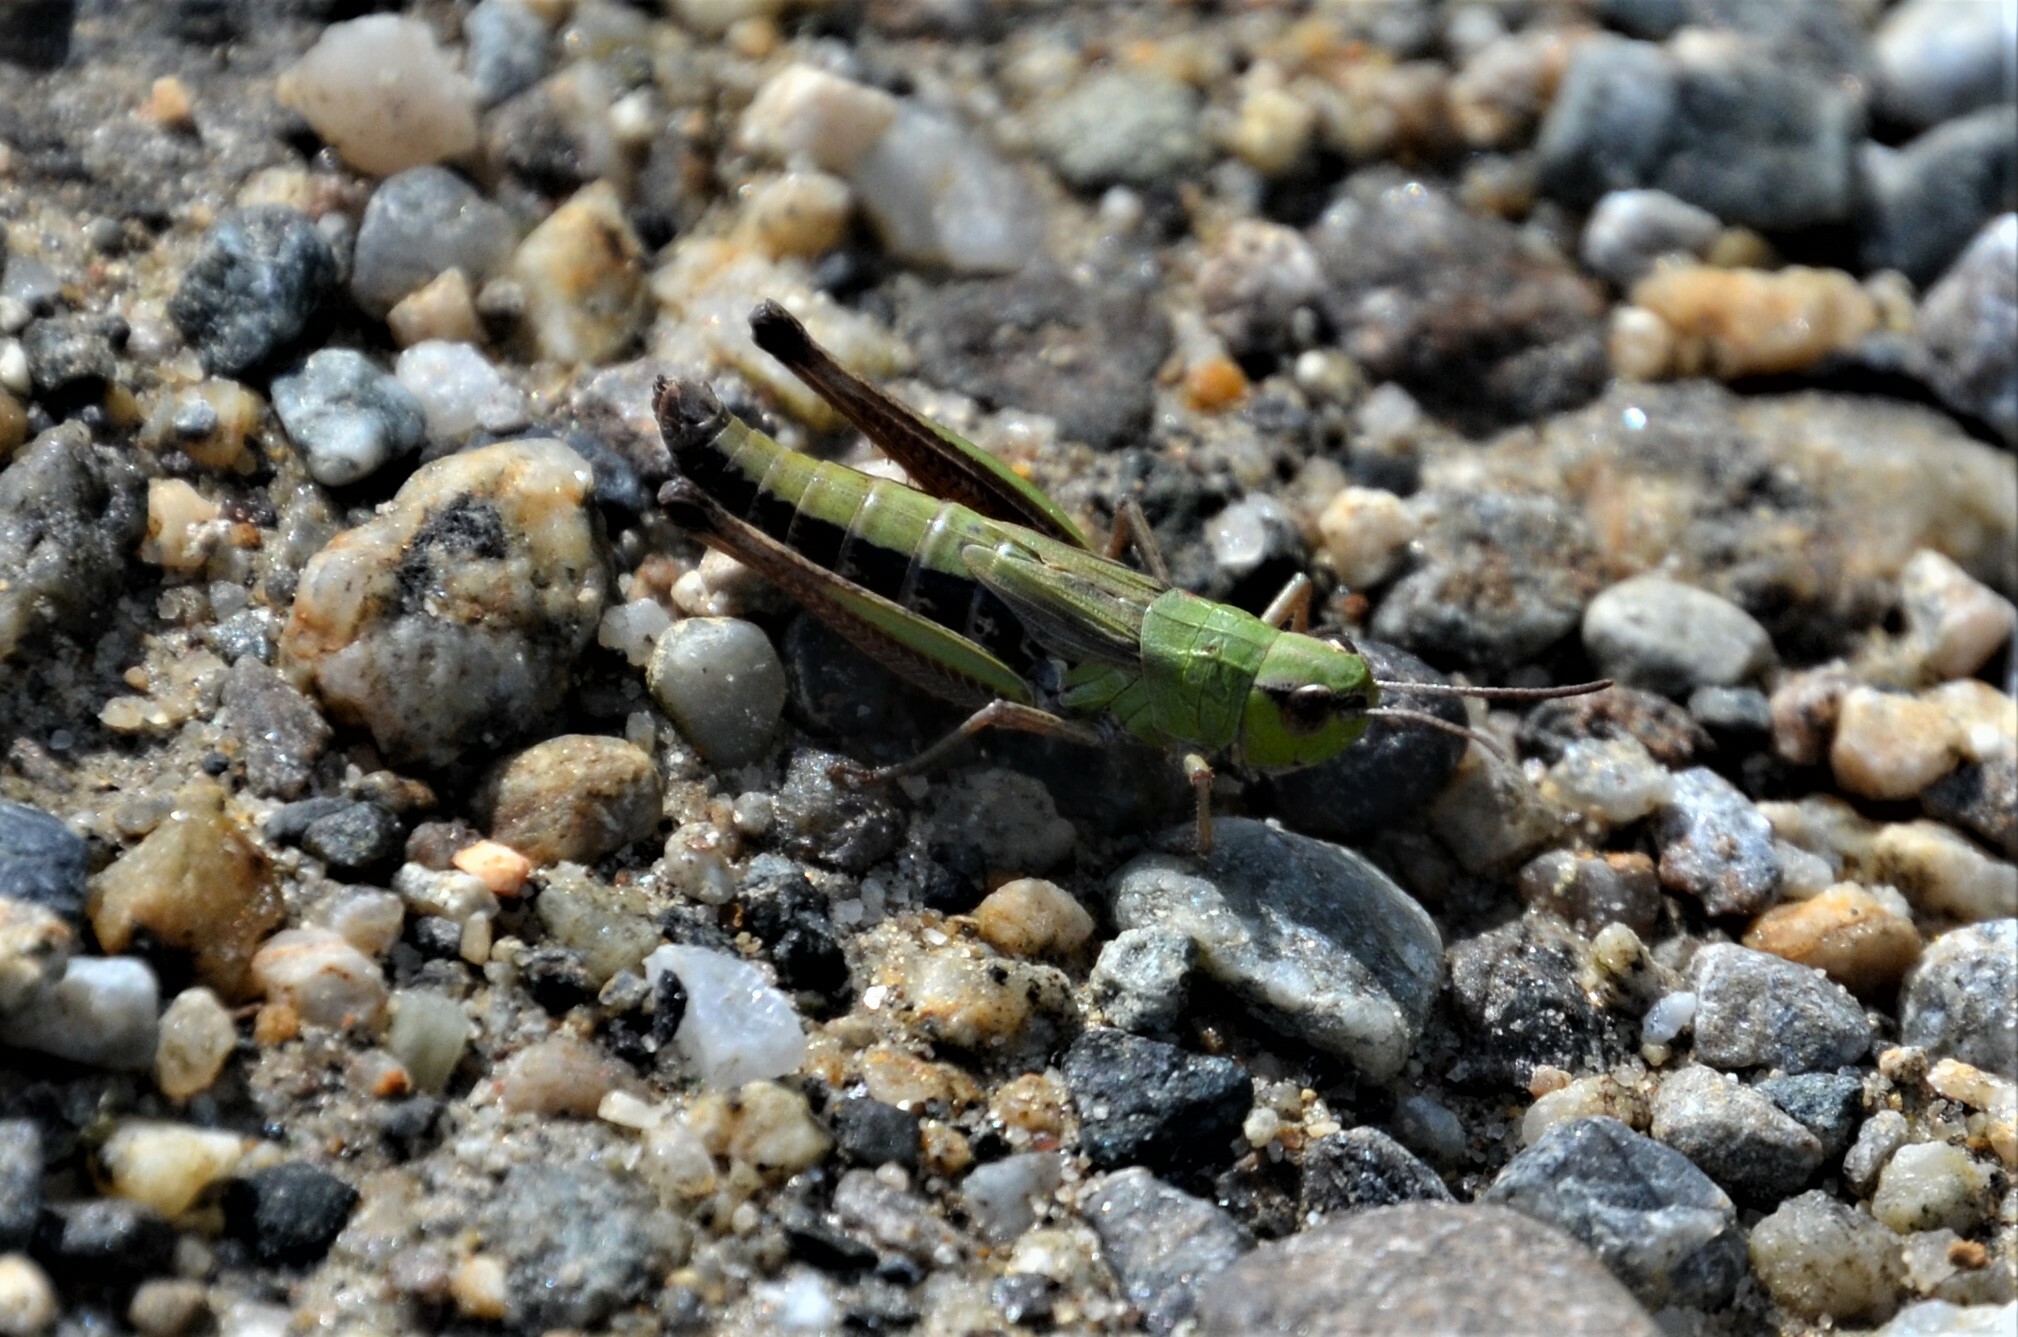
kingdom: Animalia
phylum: Arthropoda
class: Insecta
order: Orthoptera
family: Acrididae
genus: Pseudochorthippus
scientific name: Pseudochorthippus parallelus
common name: Meadow grasshopper
